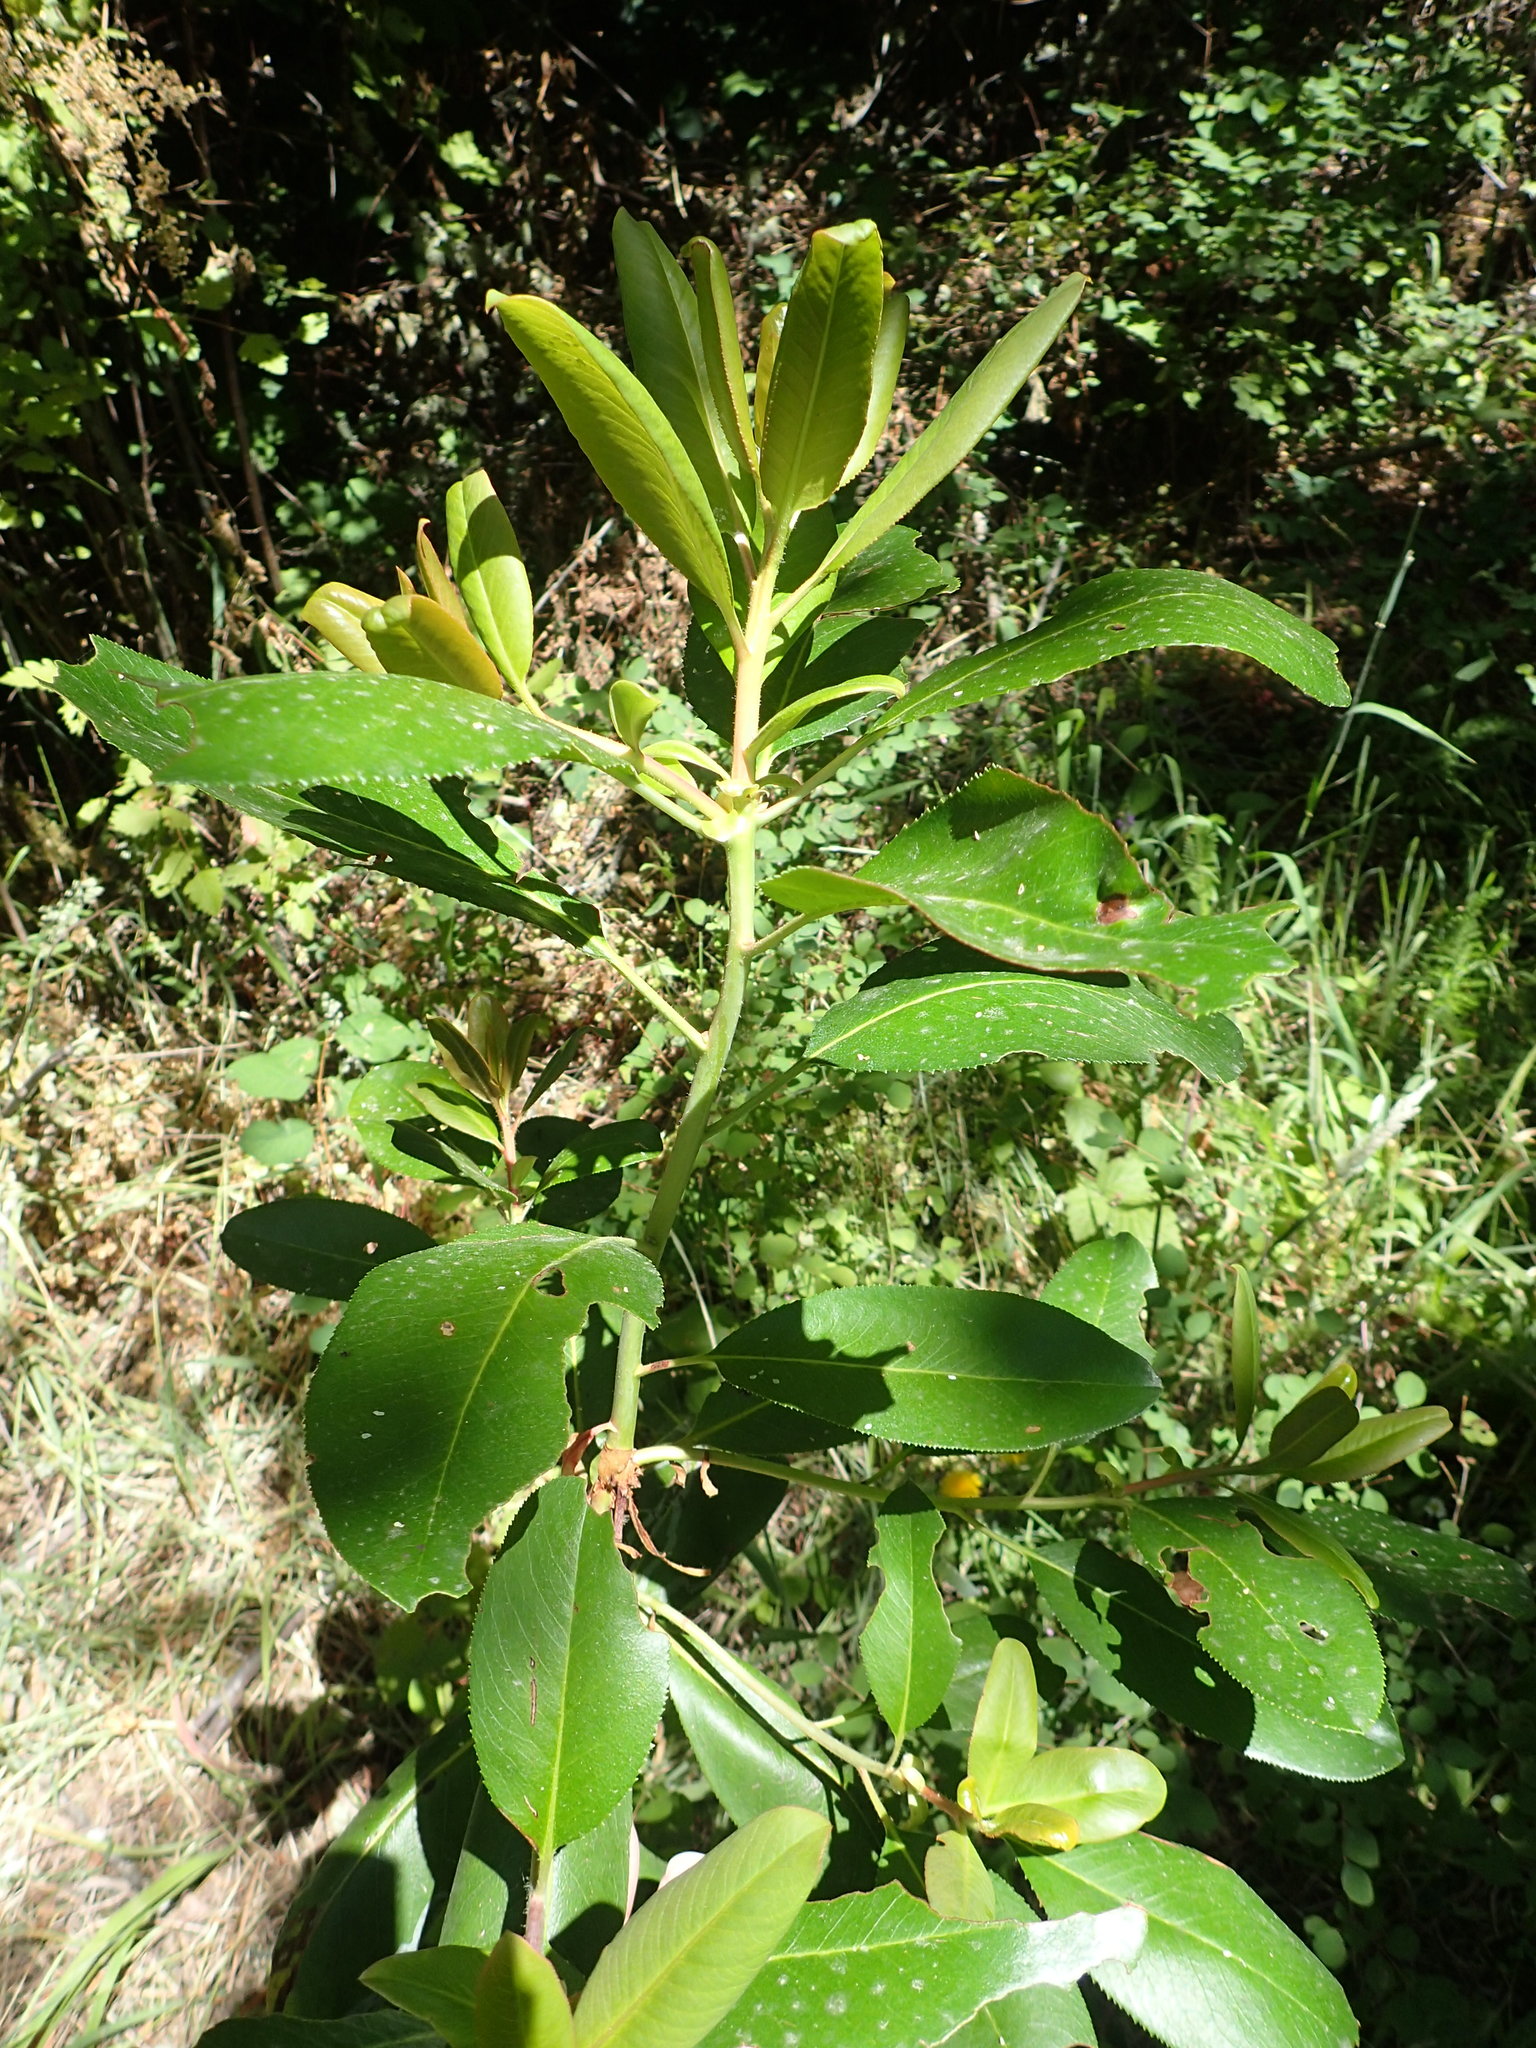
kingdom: Plantae
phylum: Tracheophyta
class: Magnoliopsida
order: Ericales
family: Ericaceae
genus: Arbutus
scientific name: Arbutus menziesii
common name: Pacific madrone
